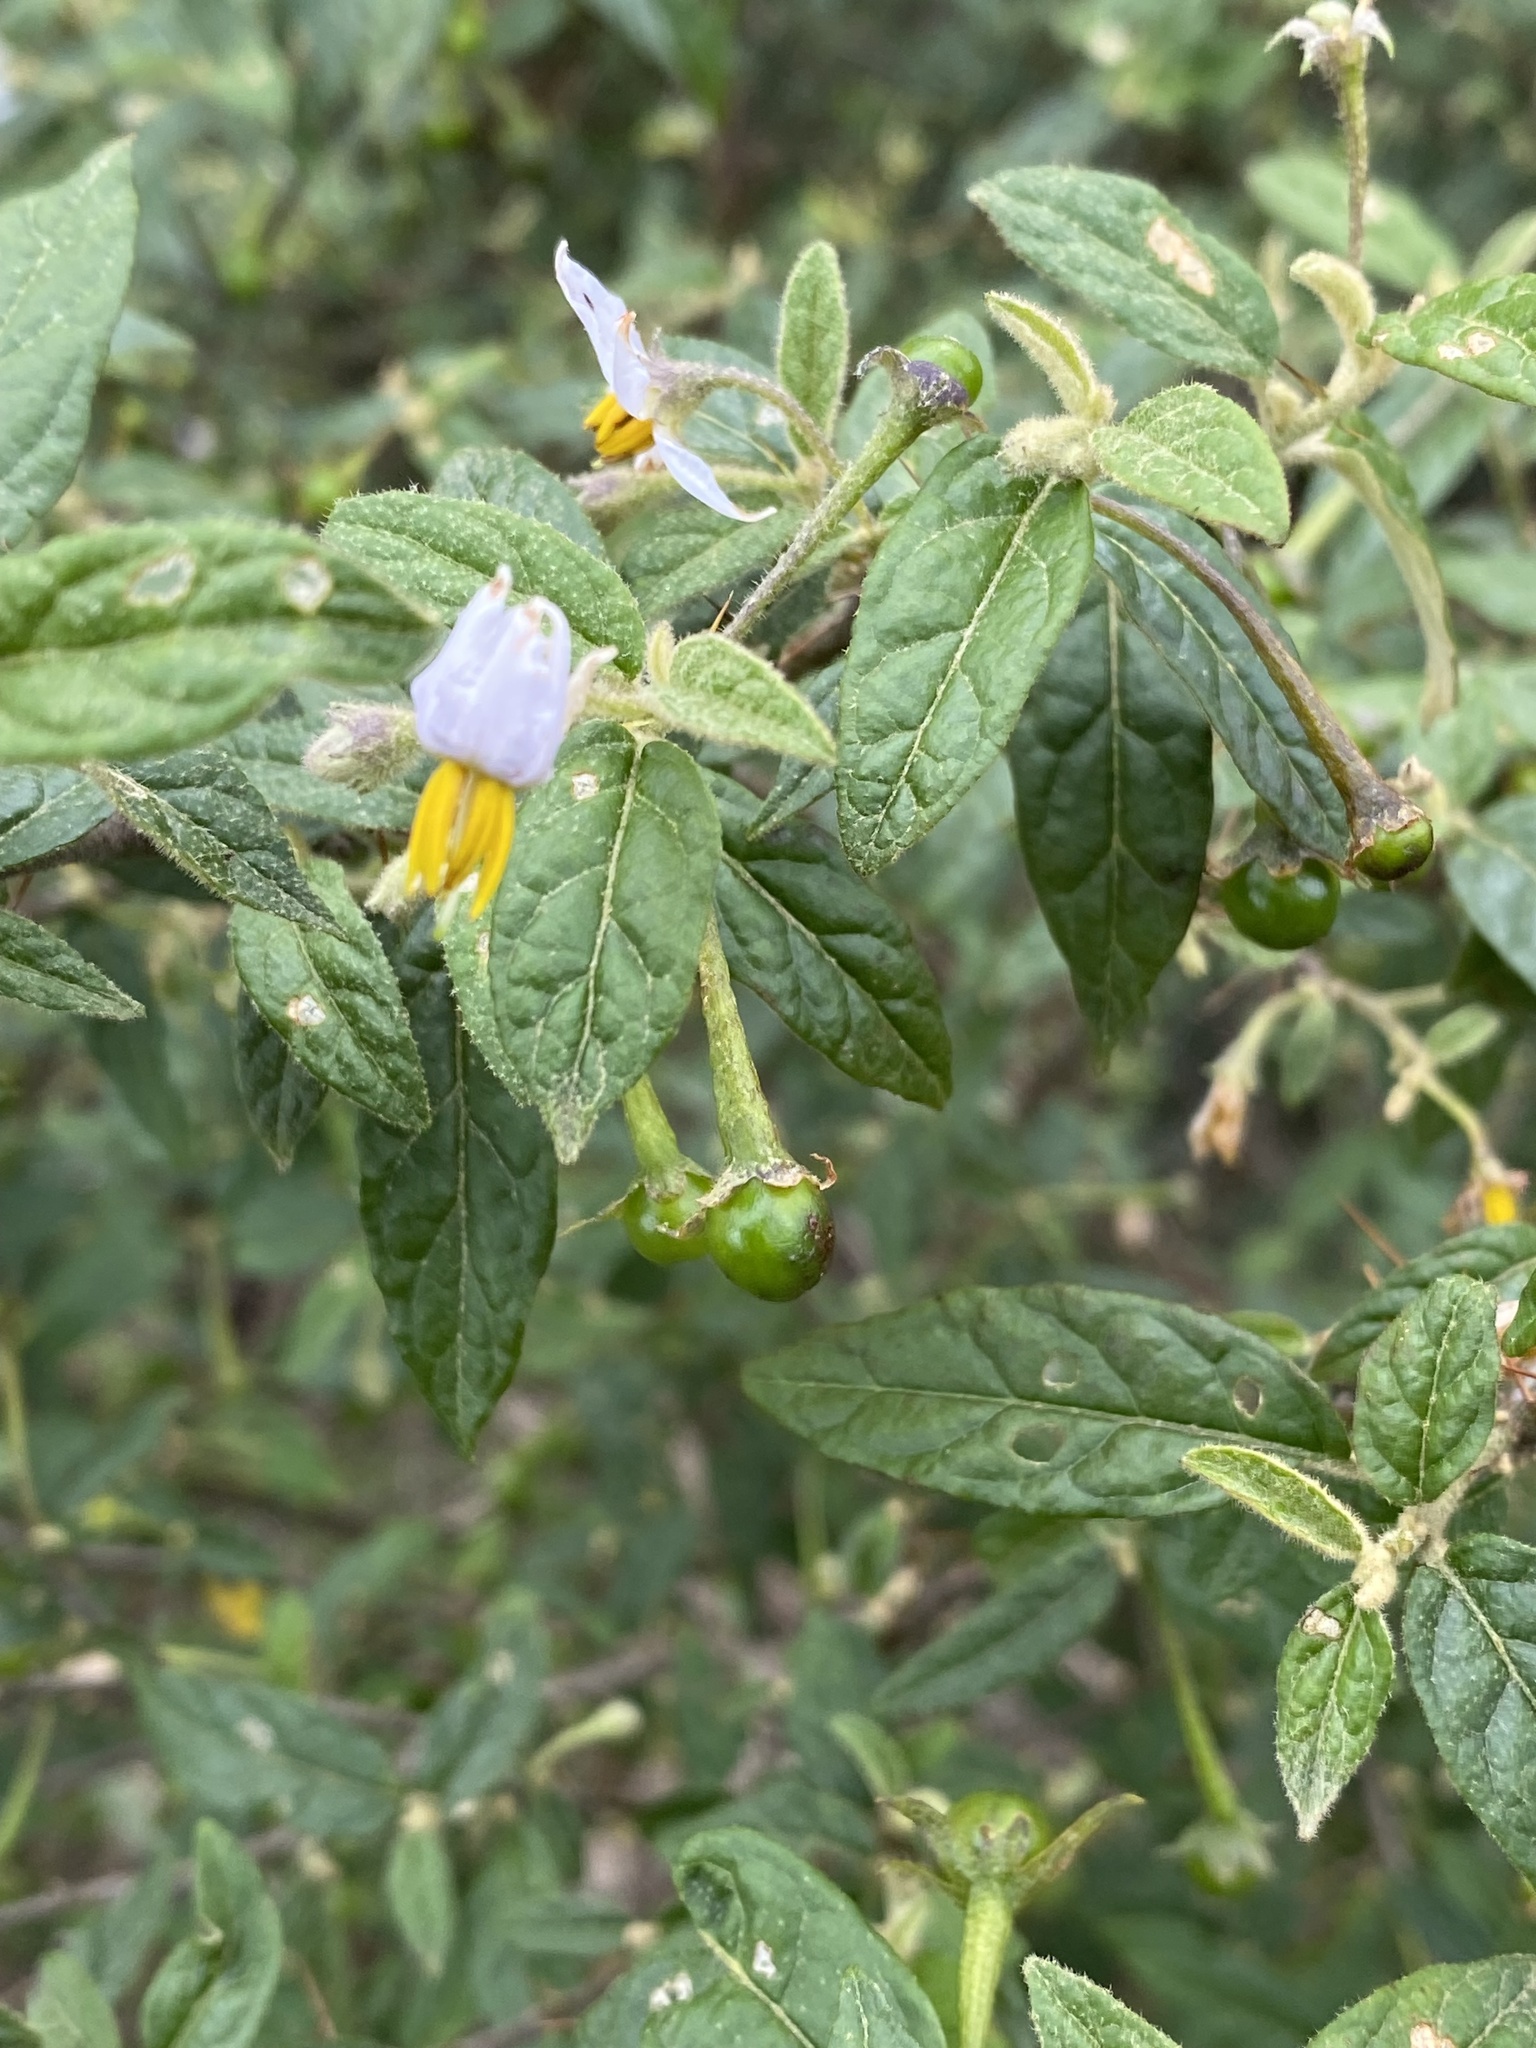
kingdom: Plantae
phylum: Tracheophyta
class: Magnoliopsida
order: Solanales
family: Solanaceae
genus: Solanum
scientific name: Solanum stelligerum
